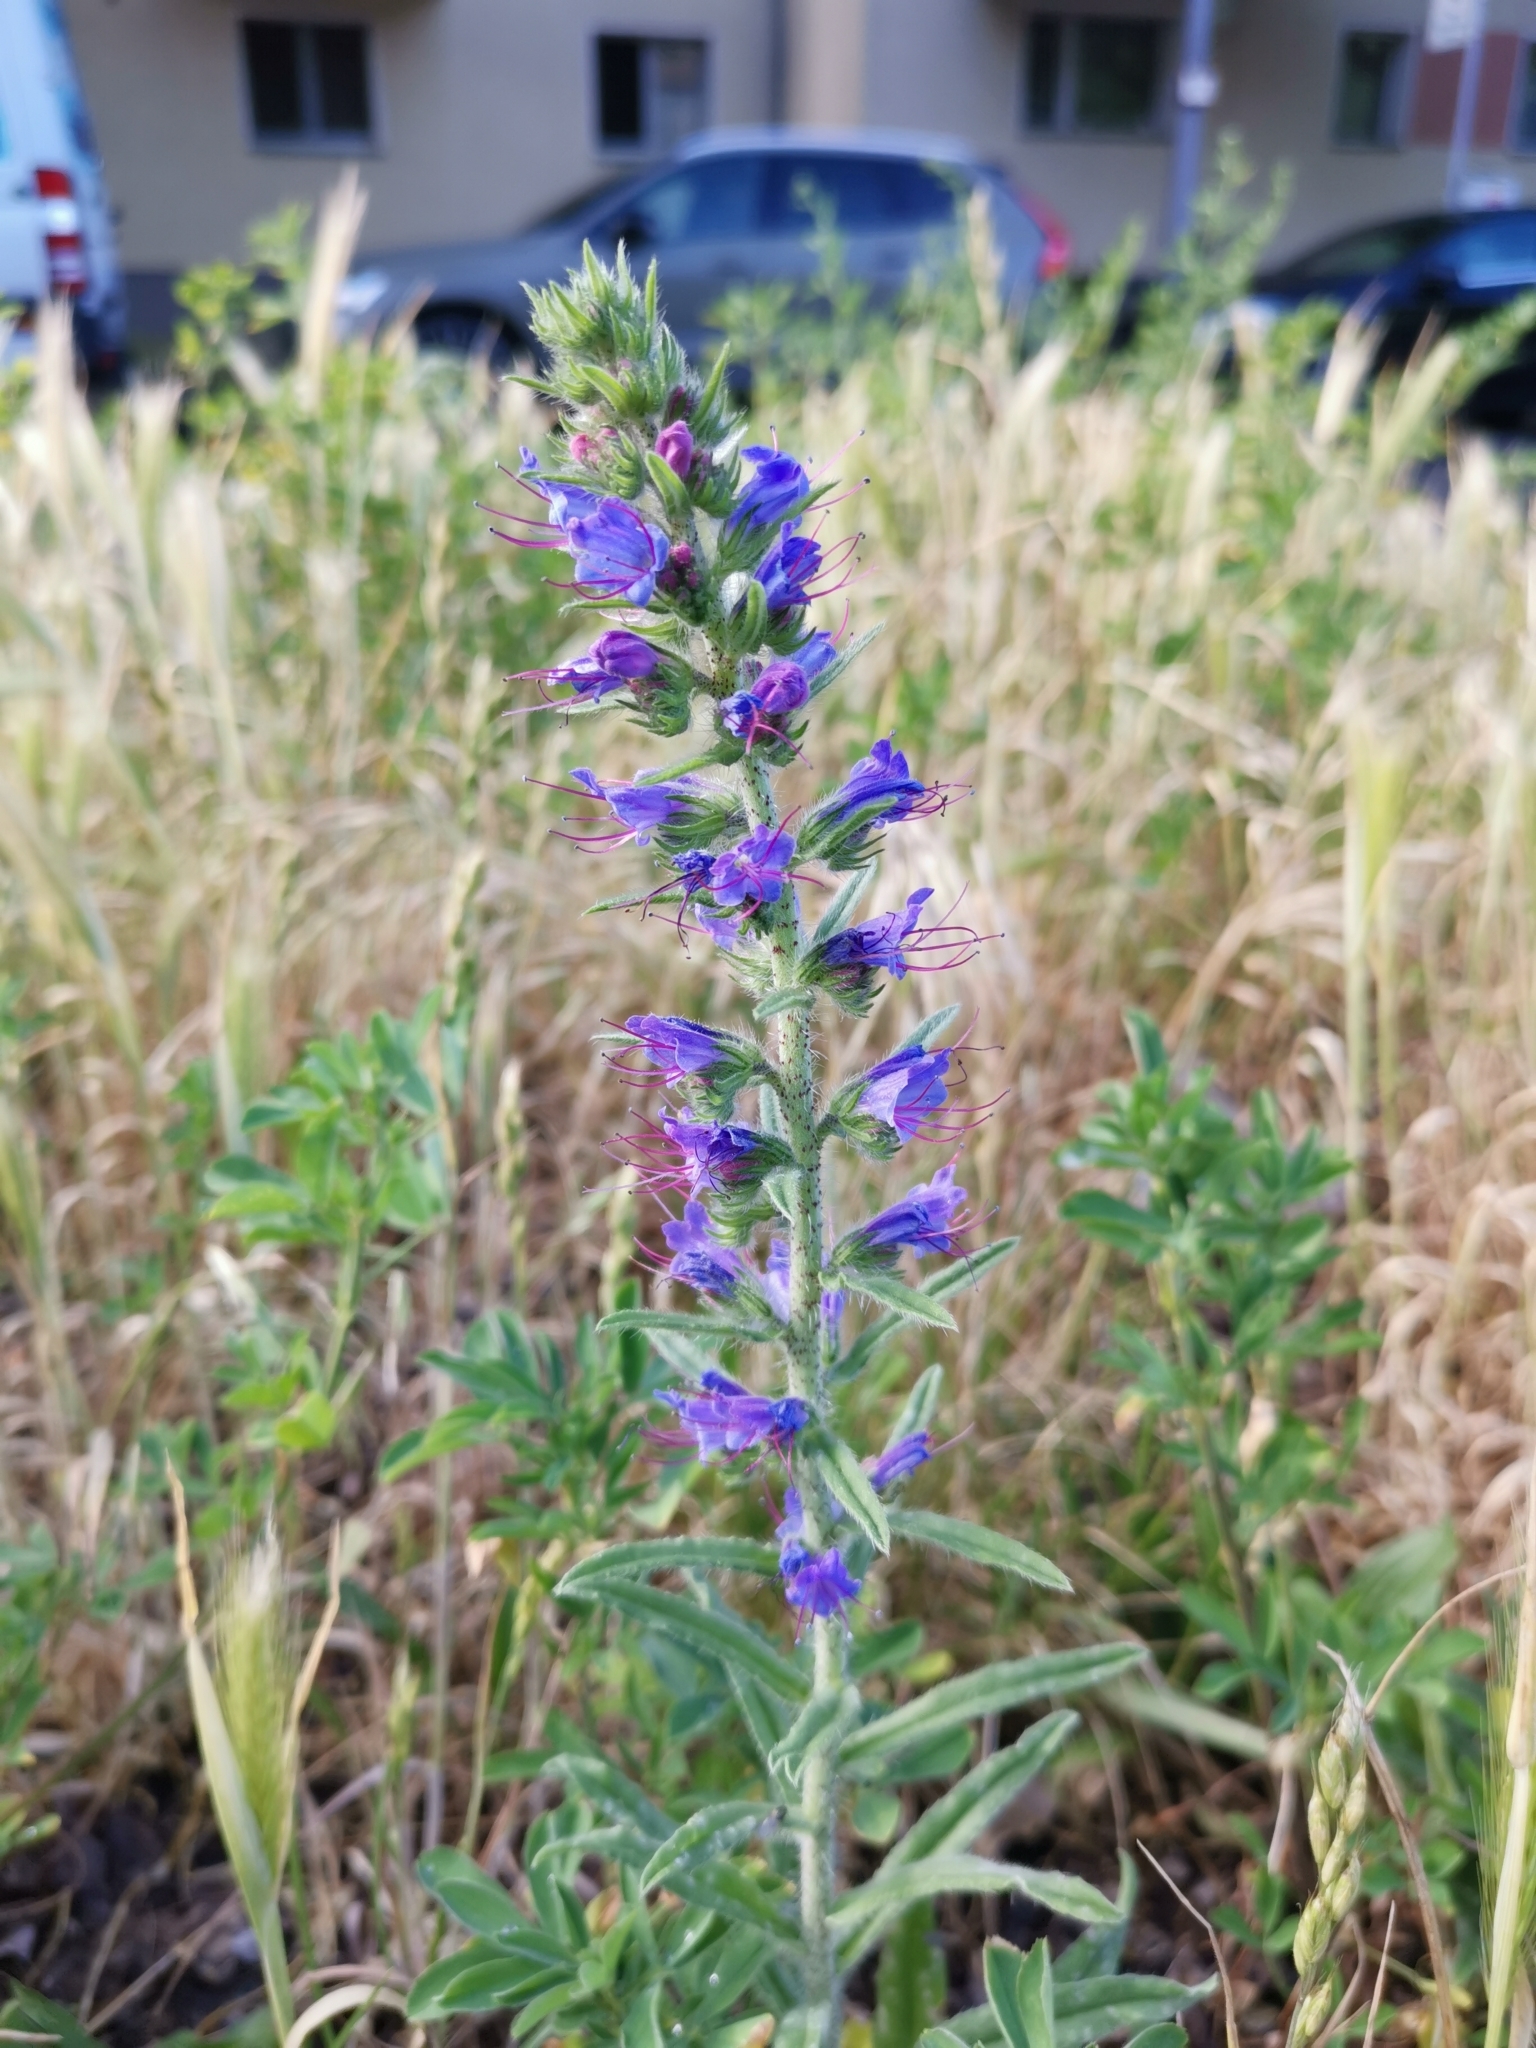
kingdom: Plantae
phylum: Tracheophyta
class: Magnoliopsida
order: Boraginales
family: Boraginaceae
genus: Echium
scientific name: Echium vulgare
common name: Common viper's bugloss
